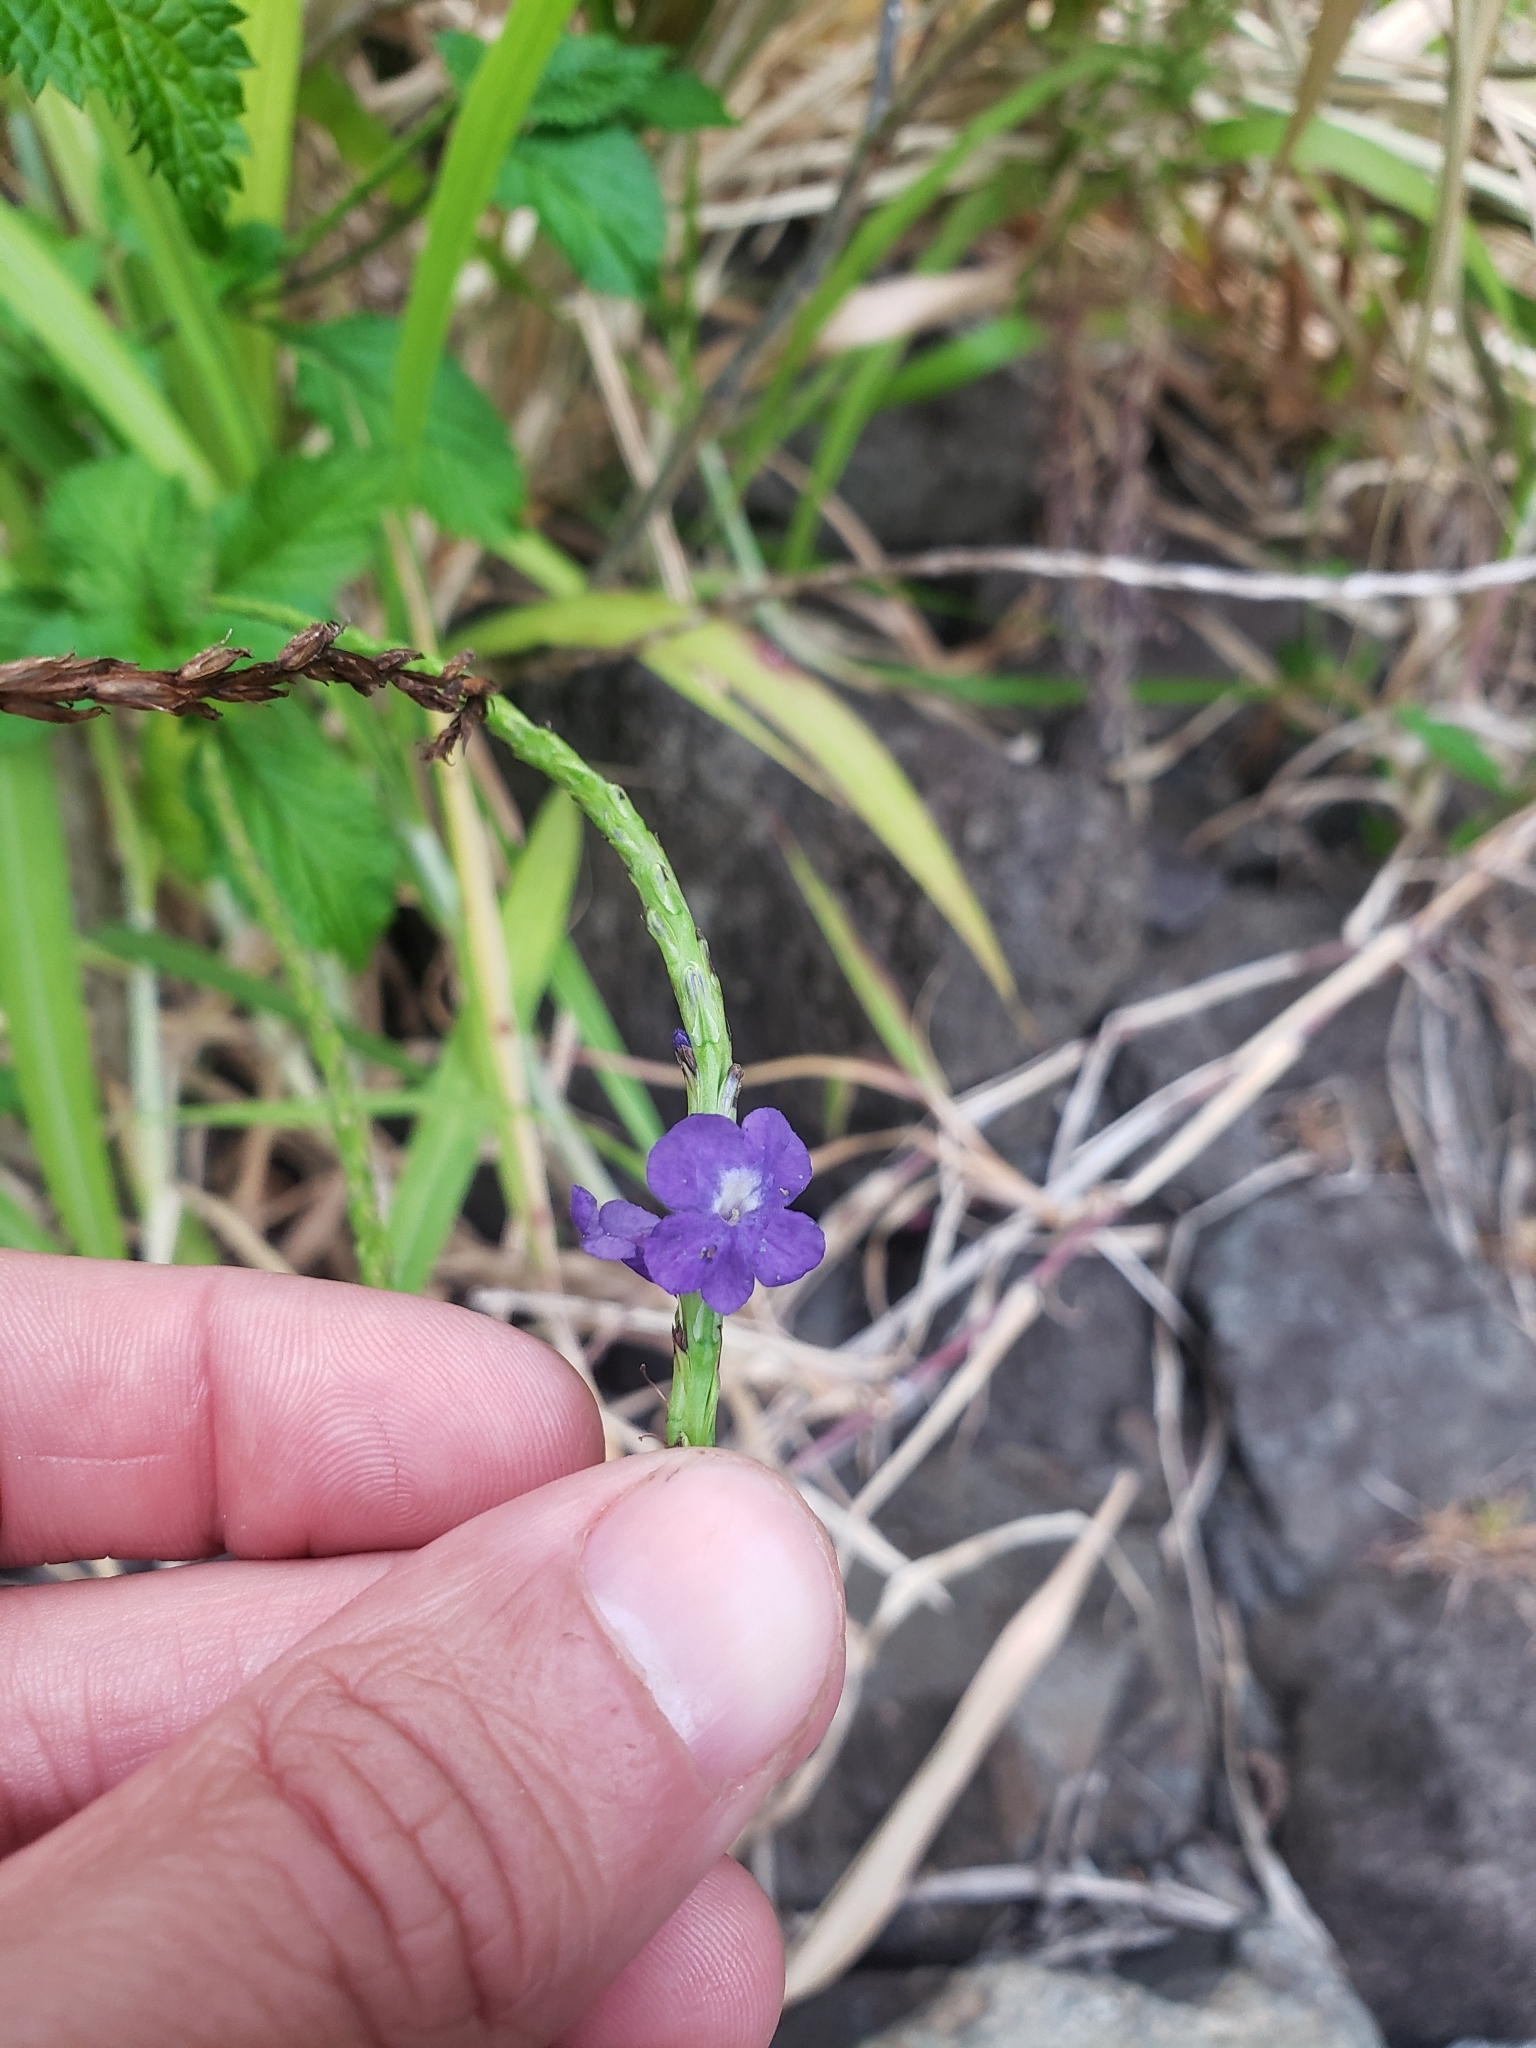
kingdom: Plantae
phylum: Tracheophyta
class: Magnoliopsida
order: Lamiales
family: Verbenaceae
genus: Stachytarpheta
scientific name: Stachytarpheta cayennensis
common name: Cayenne porterweed
